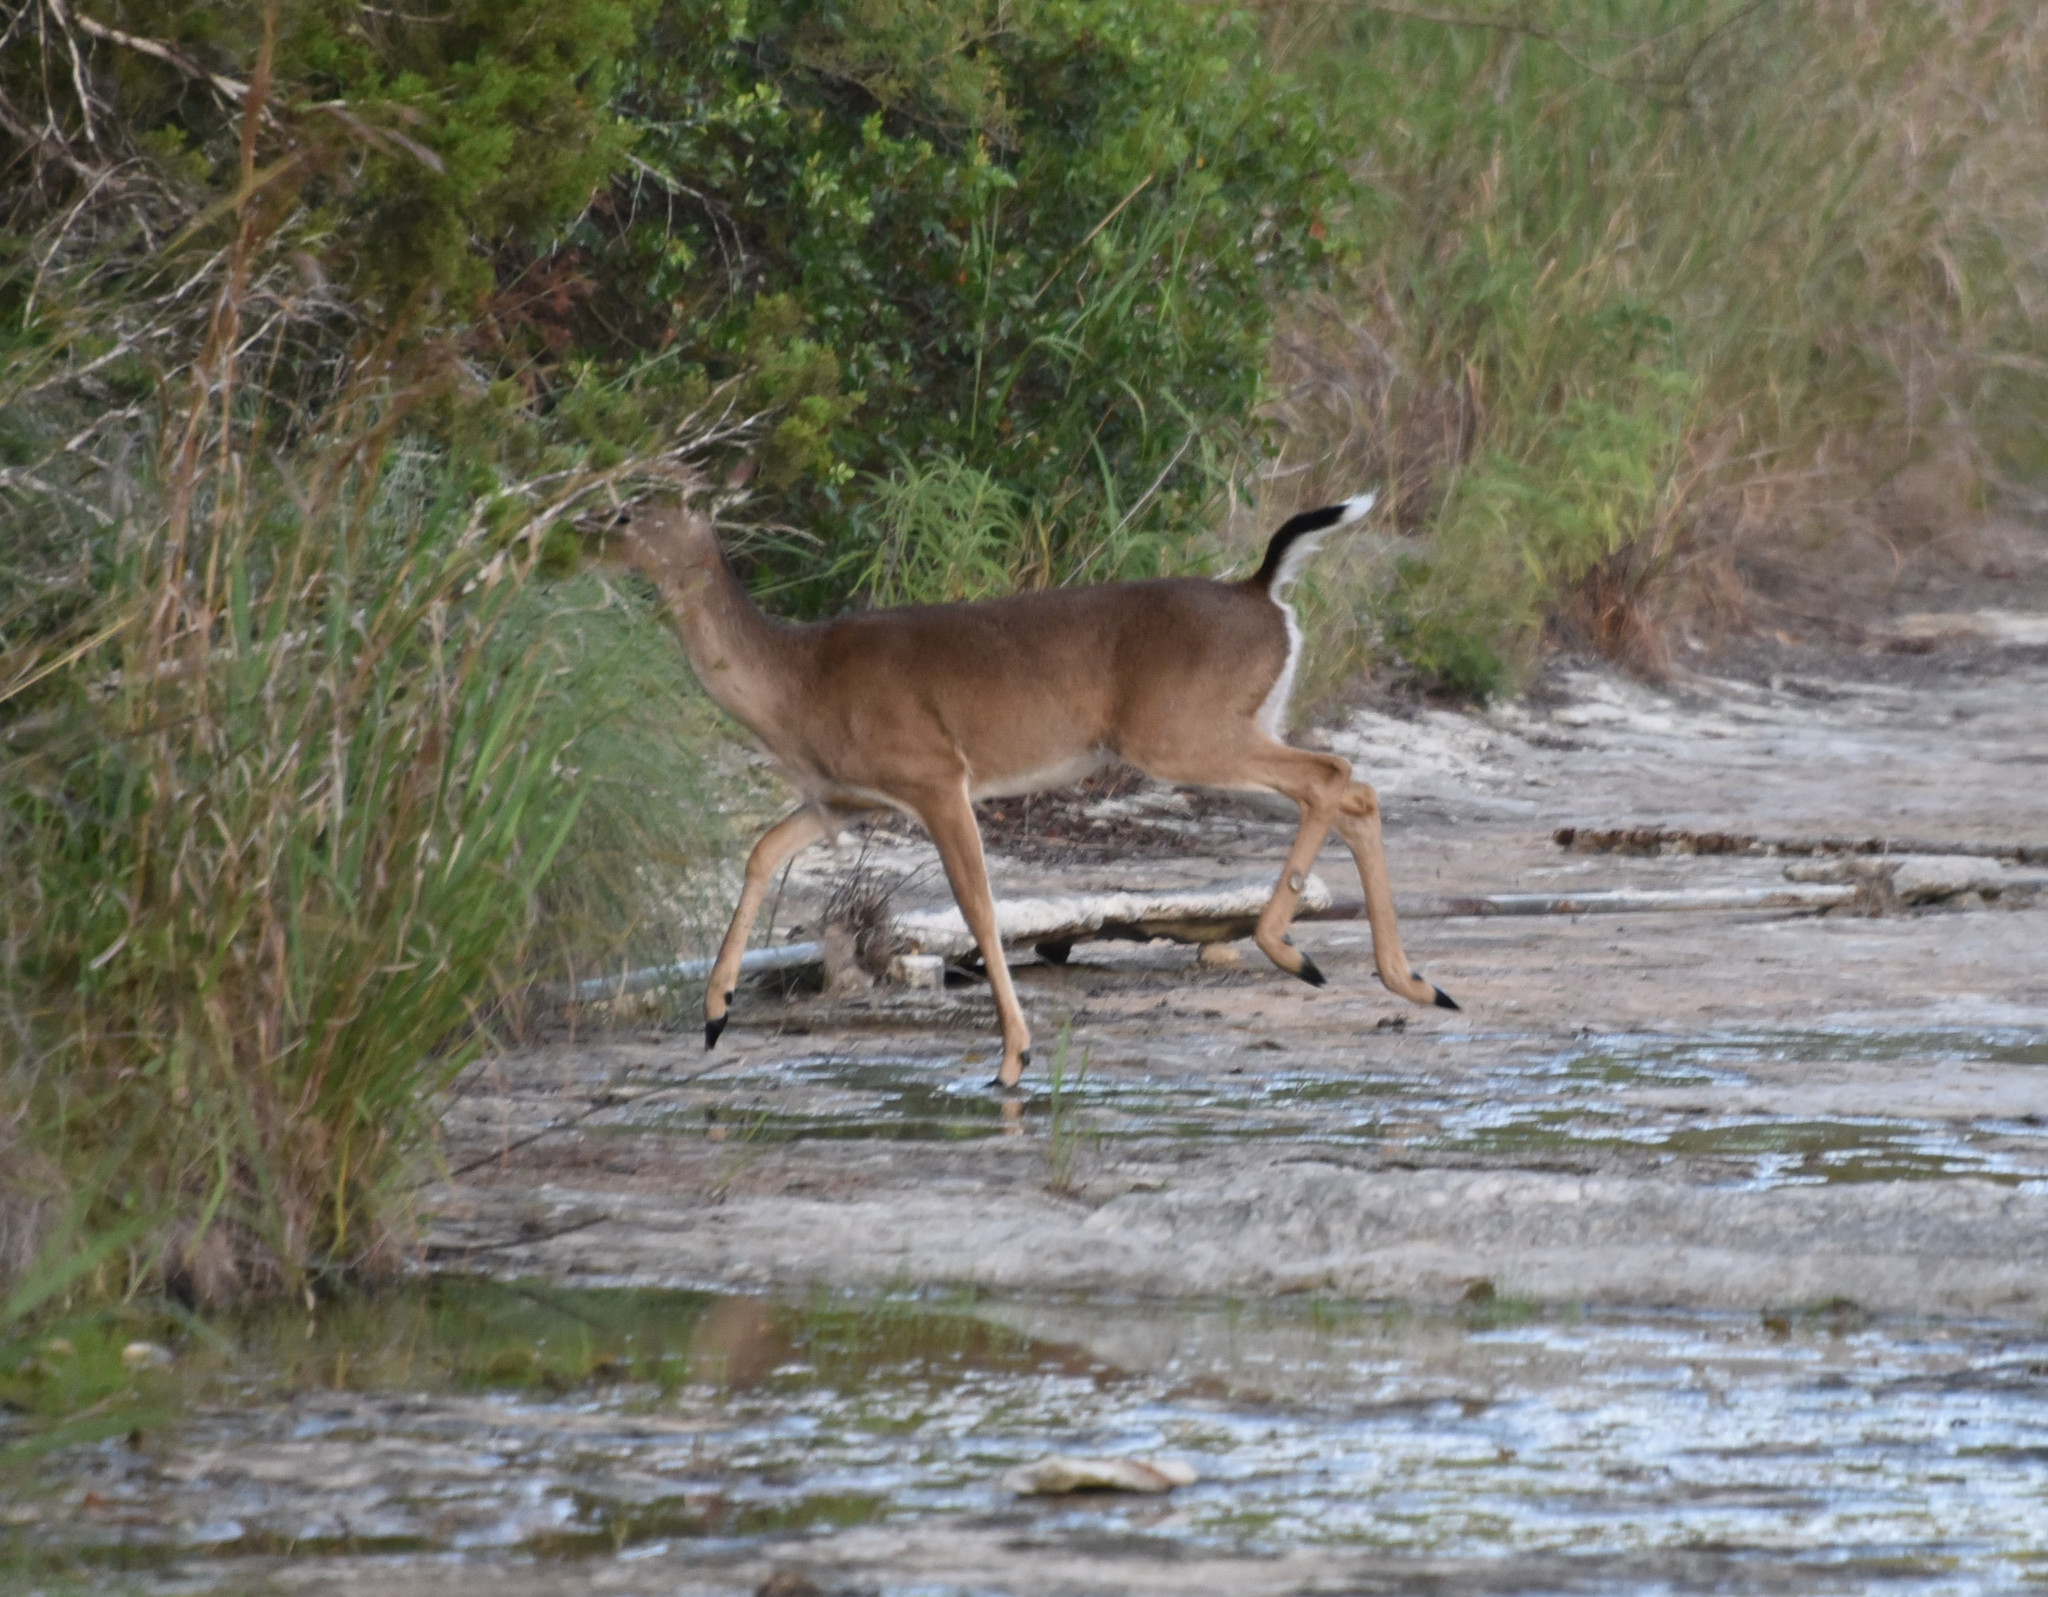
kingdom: Animalia
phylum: Chordata
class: Mammalia
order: Artiodactyla
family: Cervidae
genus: Odocoileus
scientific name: Odocoileus virginianus
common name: White-tailed deer
